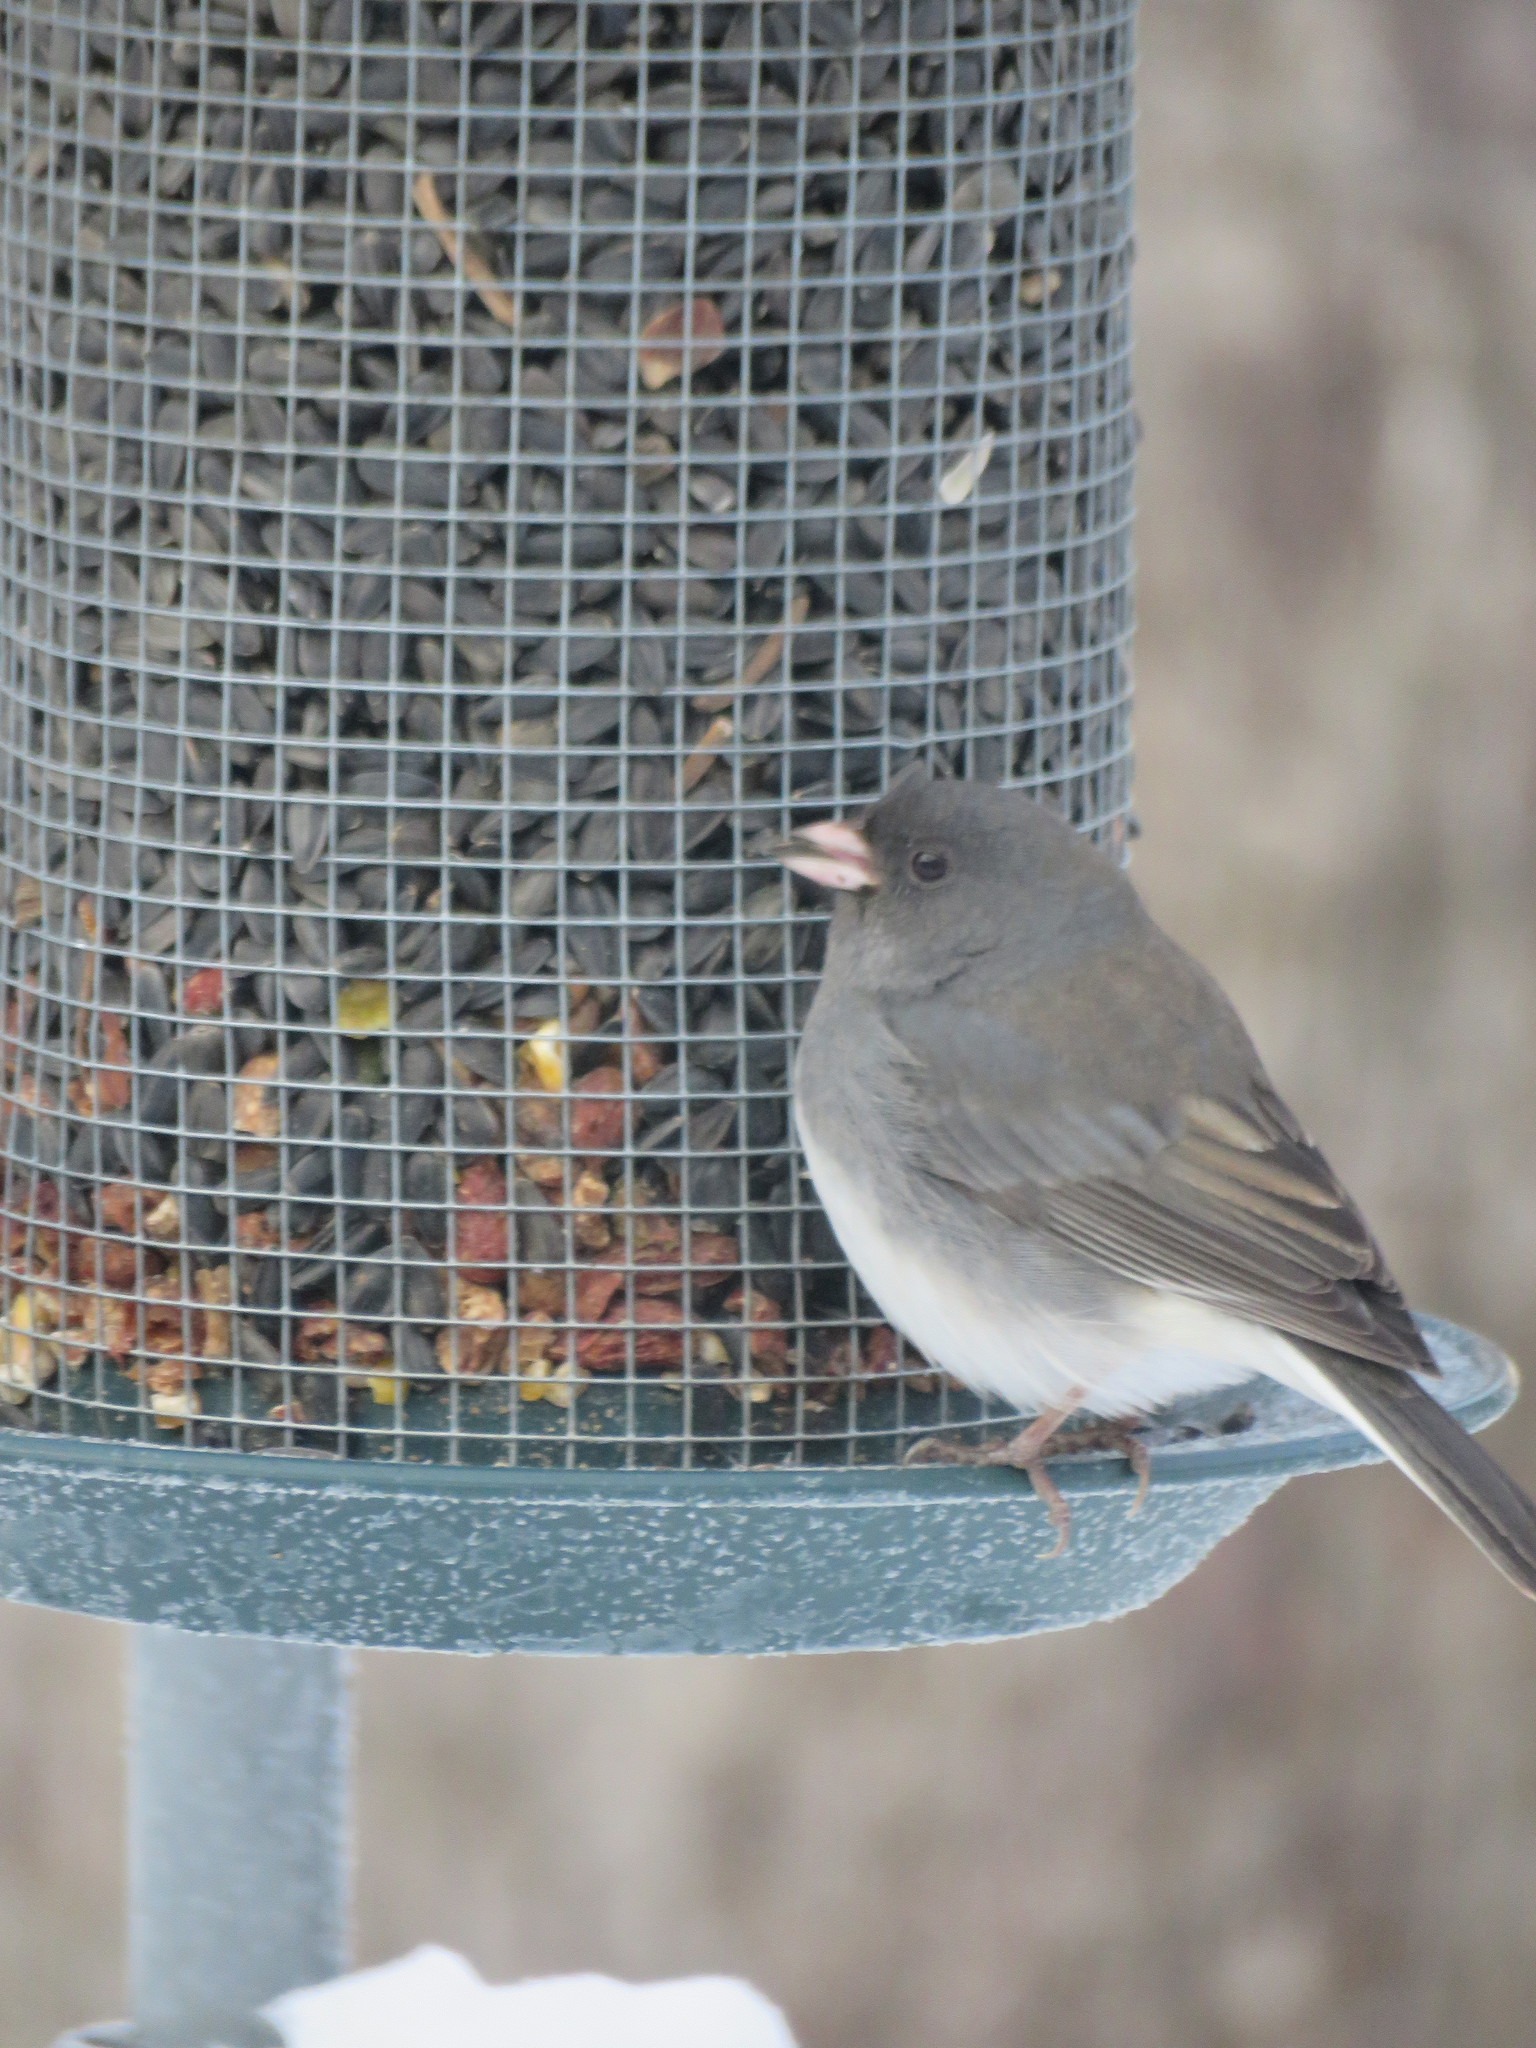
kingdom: Animalia
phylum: Chordata
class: Aves
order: Passeriformes
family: Passerellidae
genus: Junco
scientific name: Junco hyemalis
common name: Dark-eyed junco
